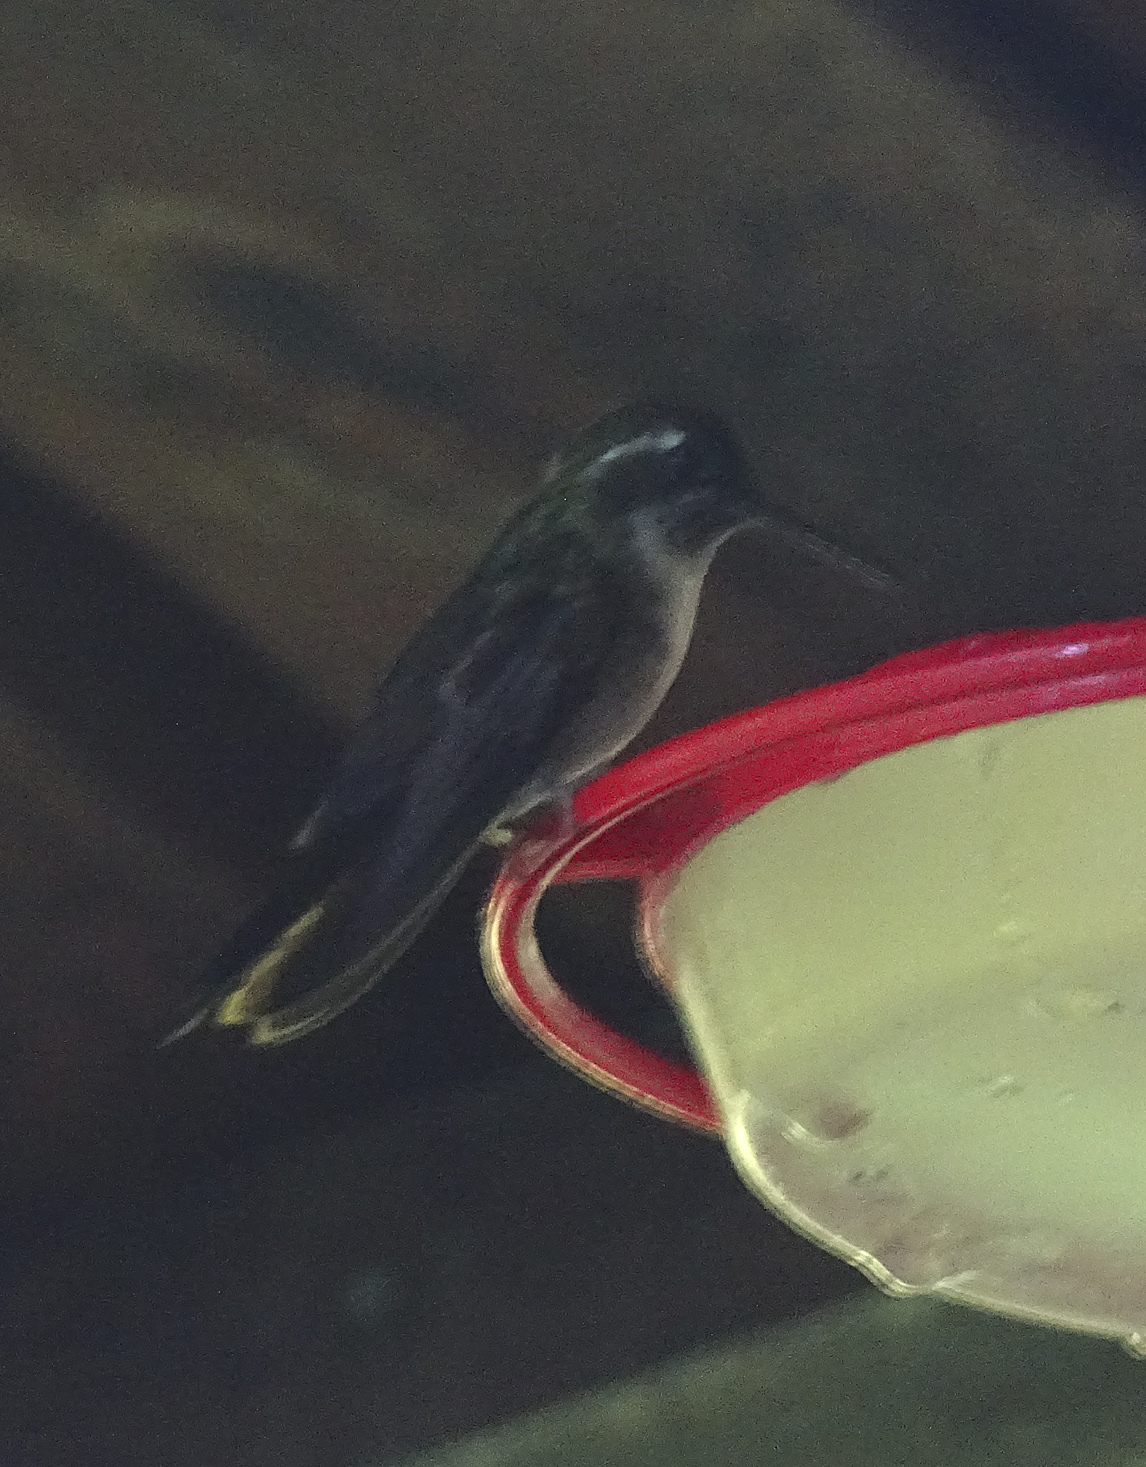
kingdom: Animalia
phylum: Chordata
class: Aves
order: Apodiformes
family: Trochilidae
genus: Lampornis
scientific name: Lampornis viridipallens
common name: Green-throated mountain-gem
